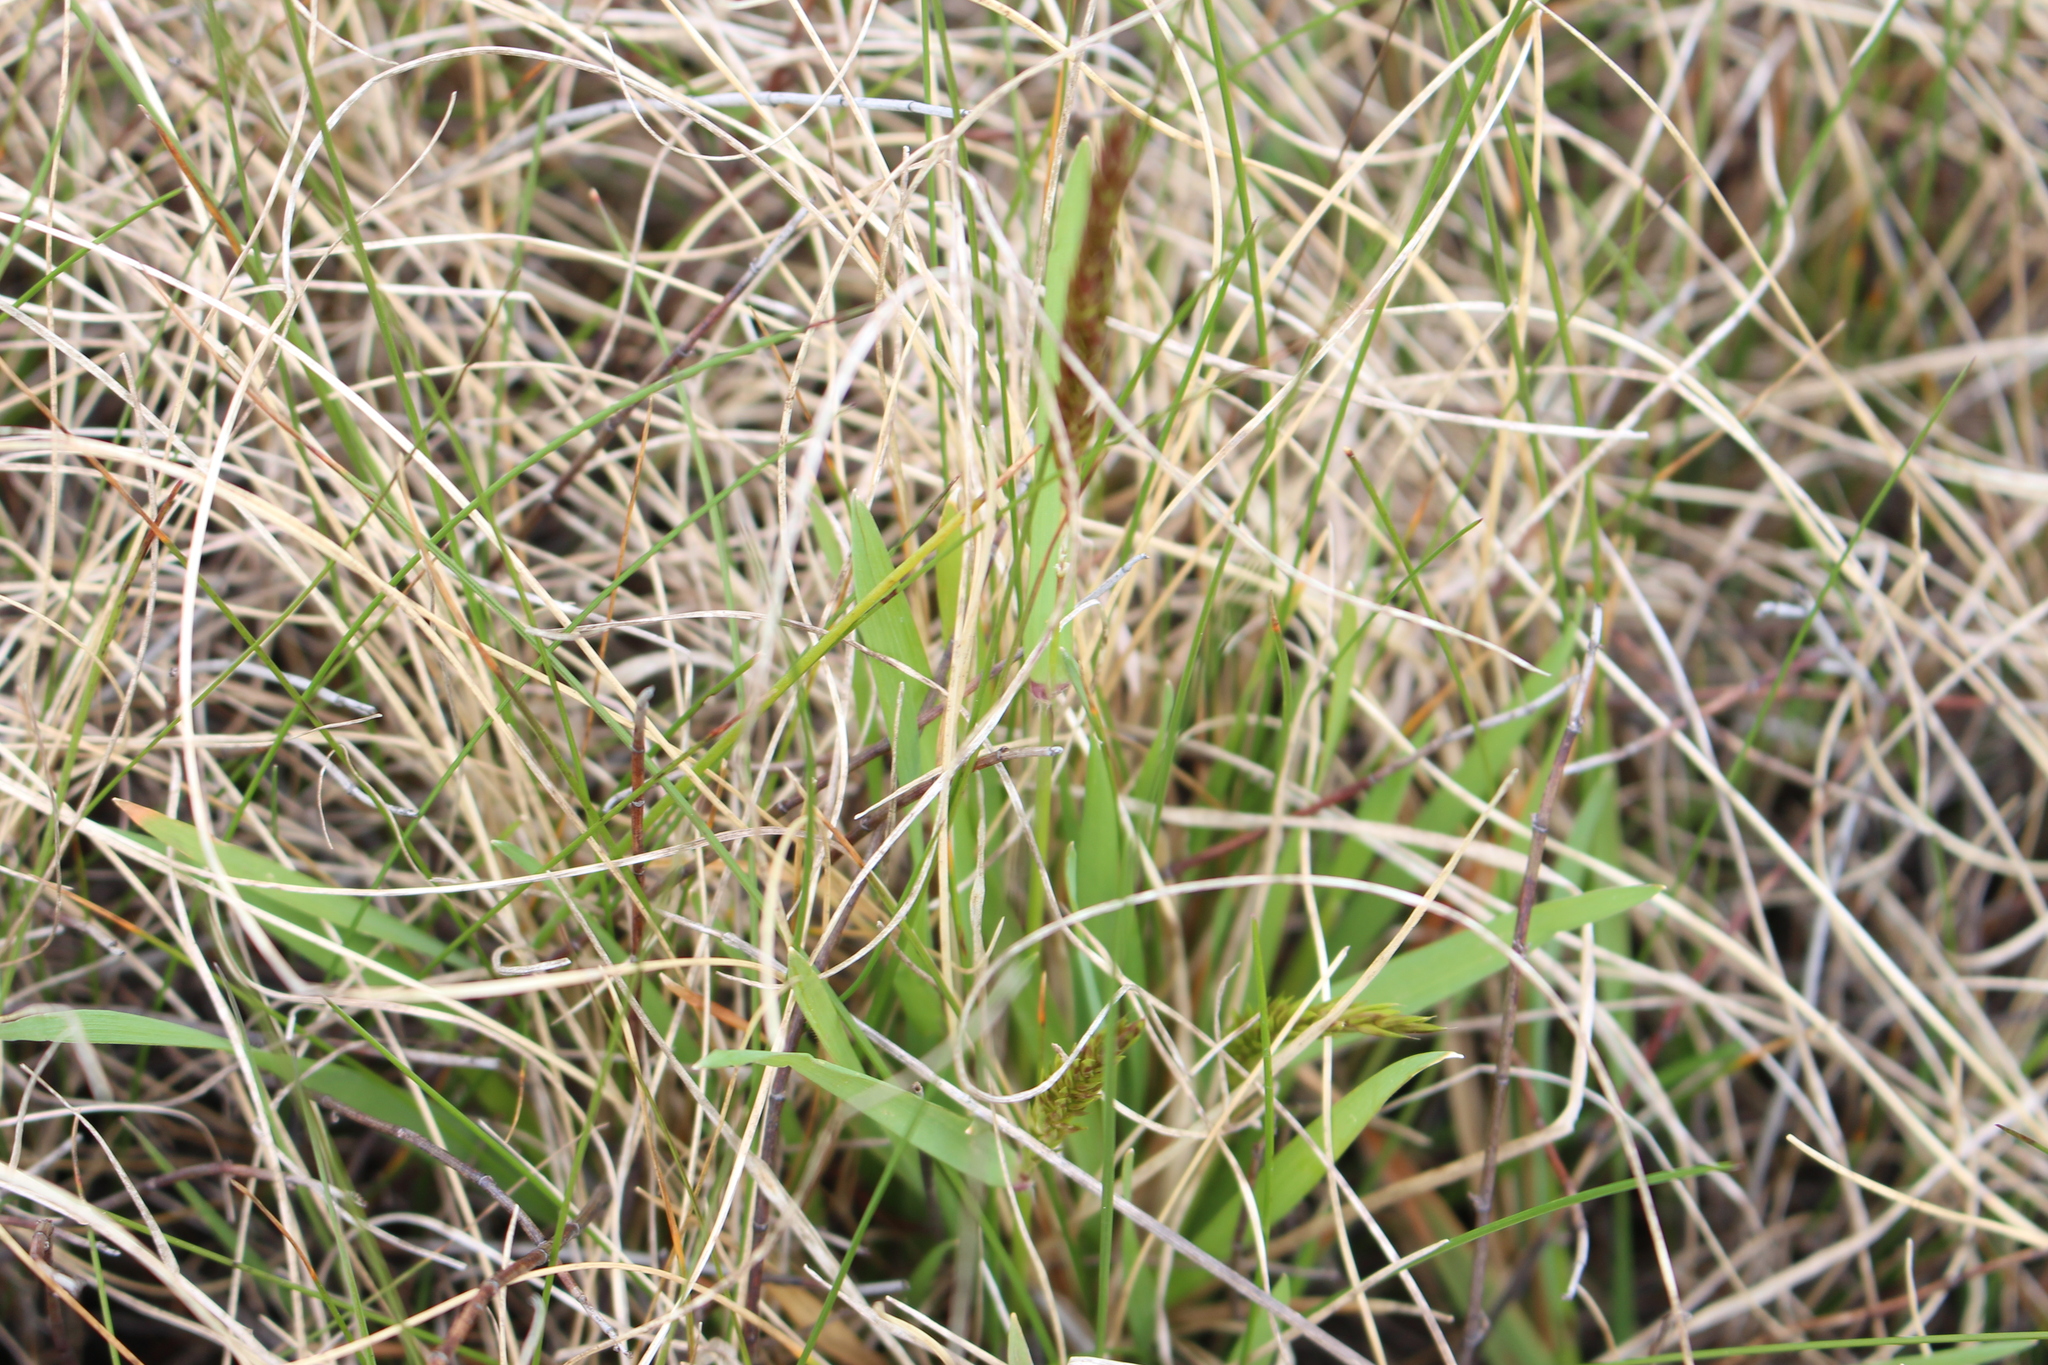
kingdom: Plantae
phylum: Tracheophyta
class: Liliopsida
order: Poales
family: Poaceae
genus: Anthoxanthum
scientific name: Anthoxanthum odoratum
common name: Sweet vernalgrass
